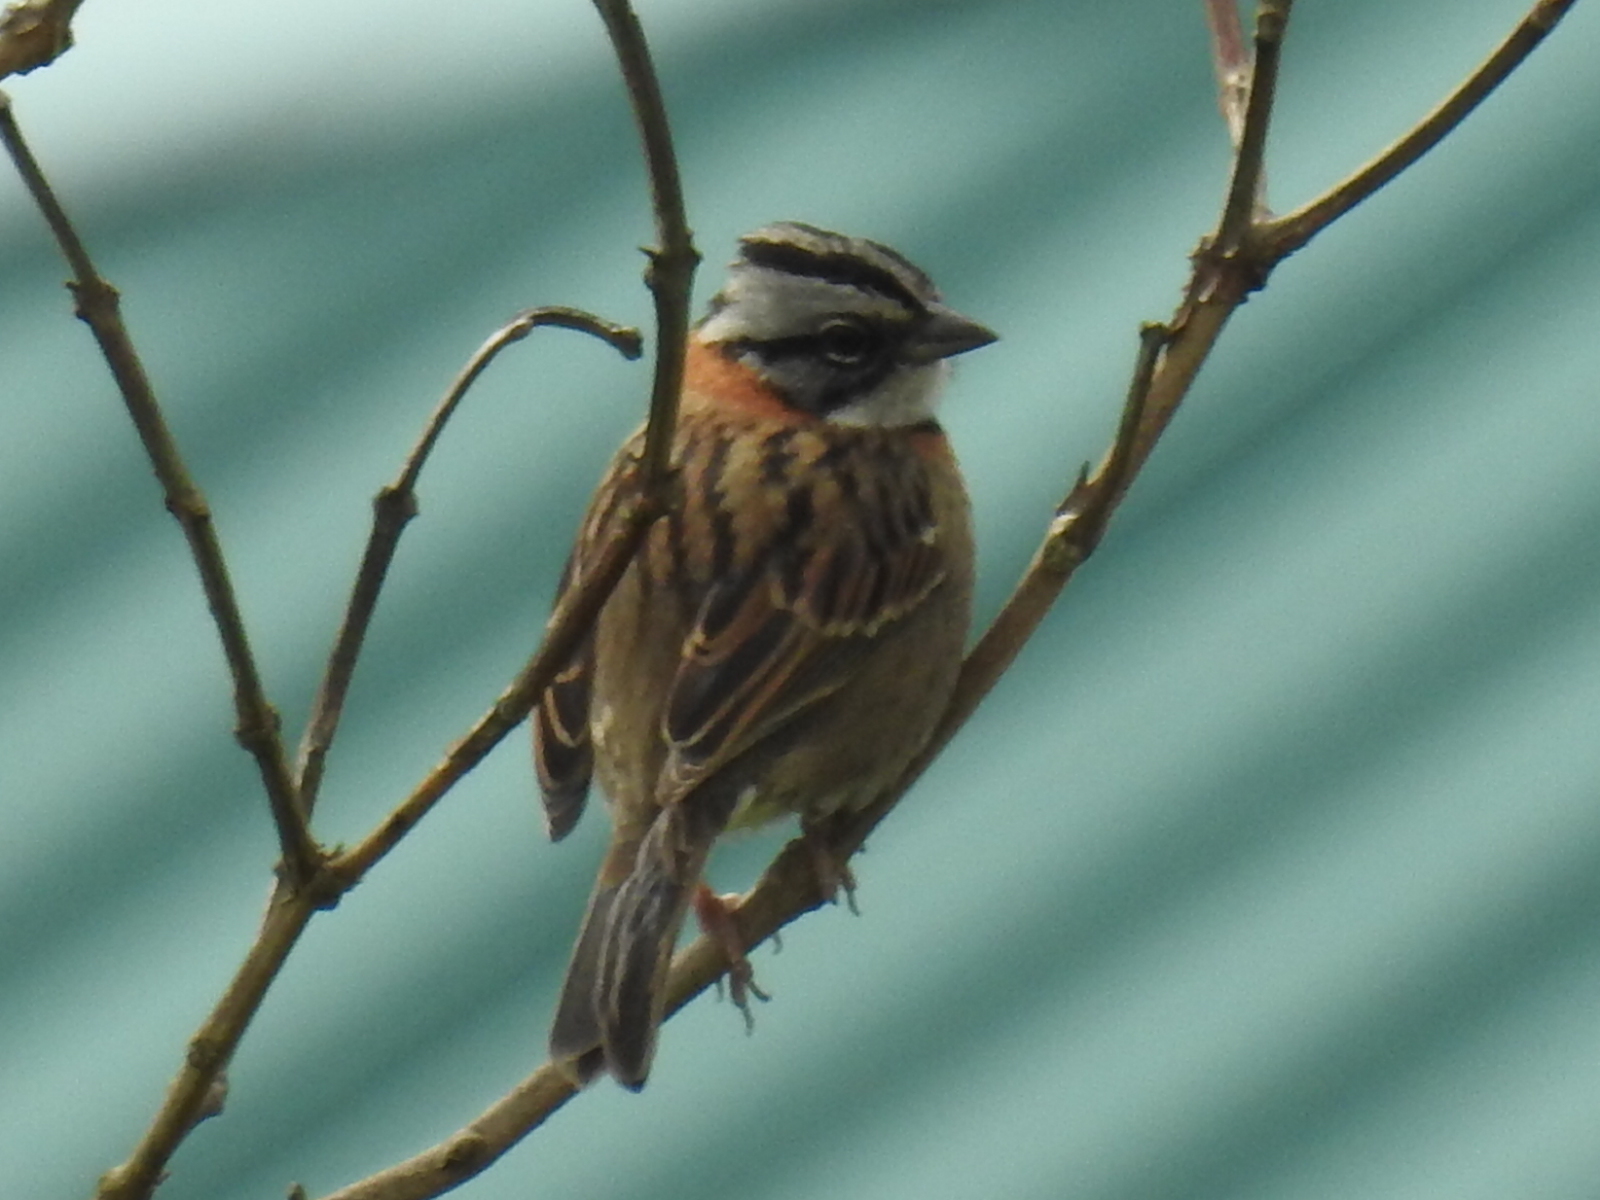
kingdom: Animalia
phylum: Chordata
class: Aves
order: Passeriformes
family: Passerellidae
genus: Zonotrichia
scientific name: Zonotrichia capensis
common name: Rufous-collared sparrow
